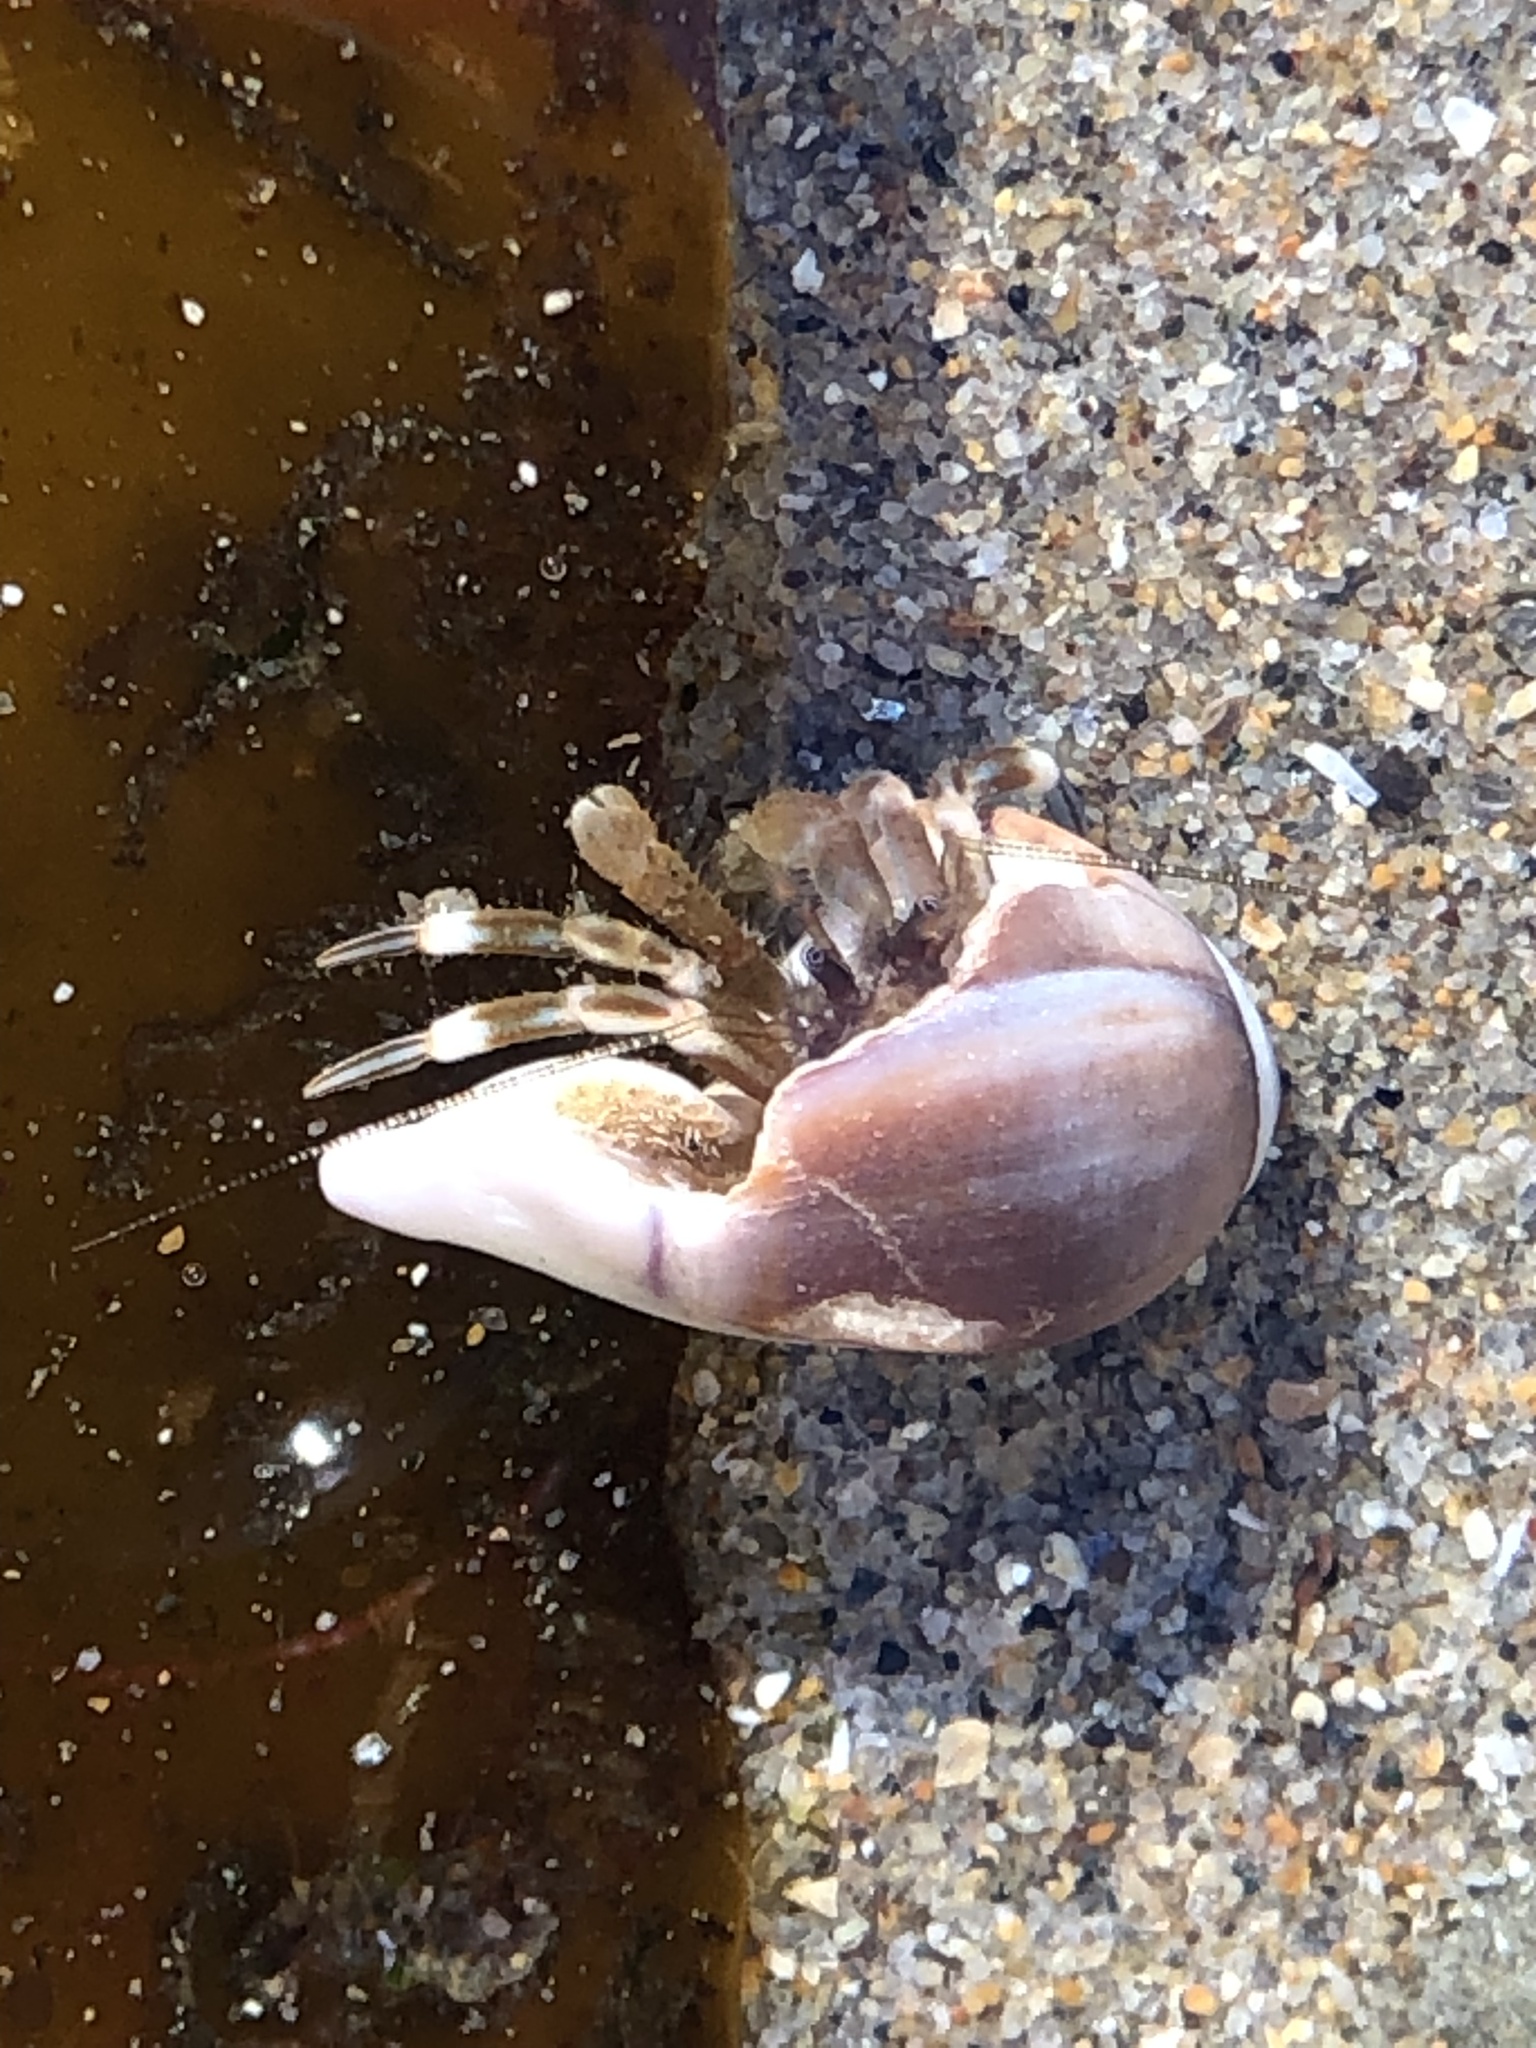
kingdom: Animalia
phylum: Arthropoda
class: Malacostraca
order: Decapoda
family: Paguridae
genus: Pagurus
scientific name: Pagurus venturensis
